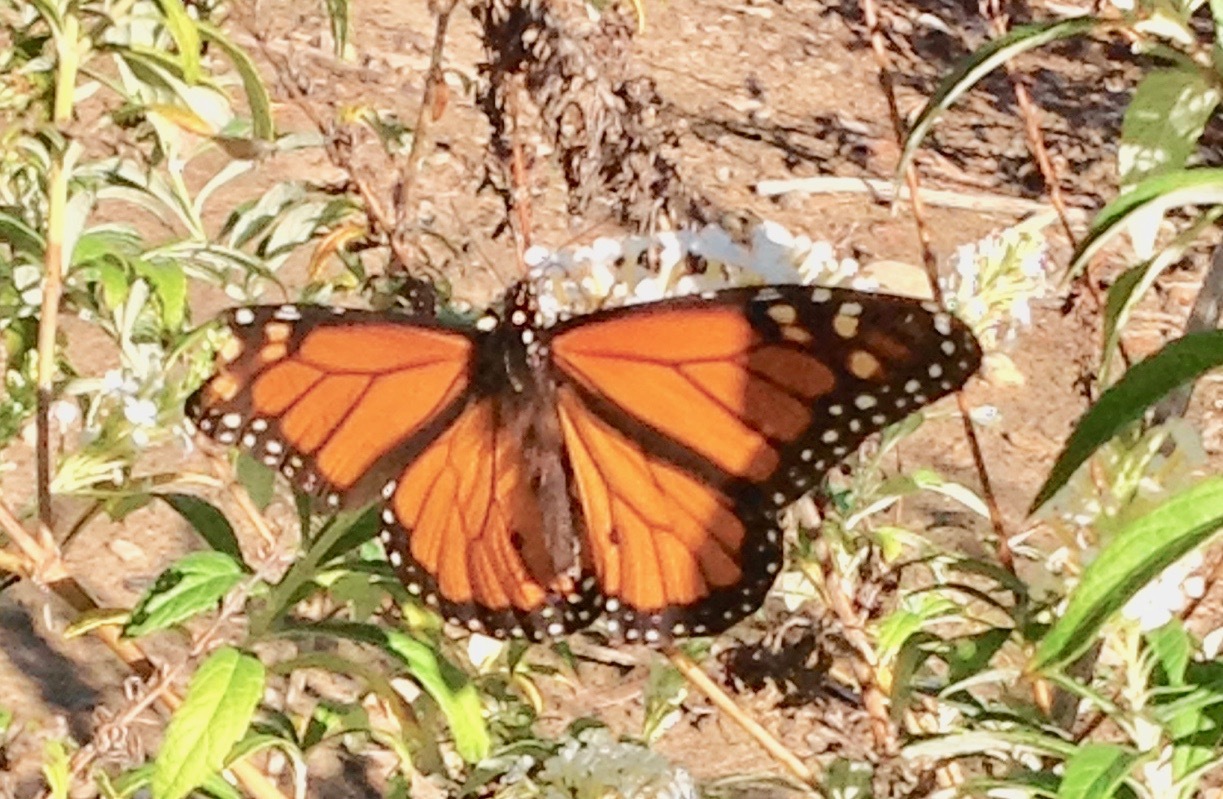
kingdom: Animalia
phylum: Arthropoda
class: Insecta
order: Lepidoptera
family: Nymphalidae
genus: Danaus
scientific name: Danaus plexippus
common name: Monarch
